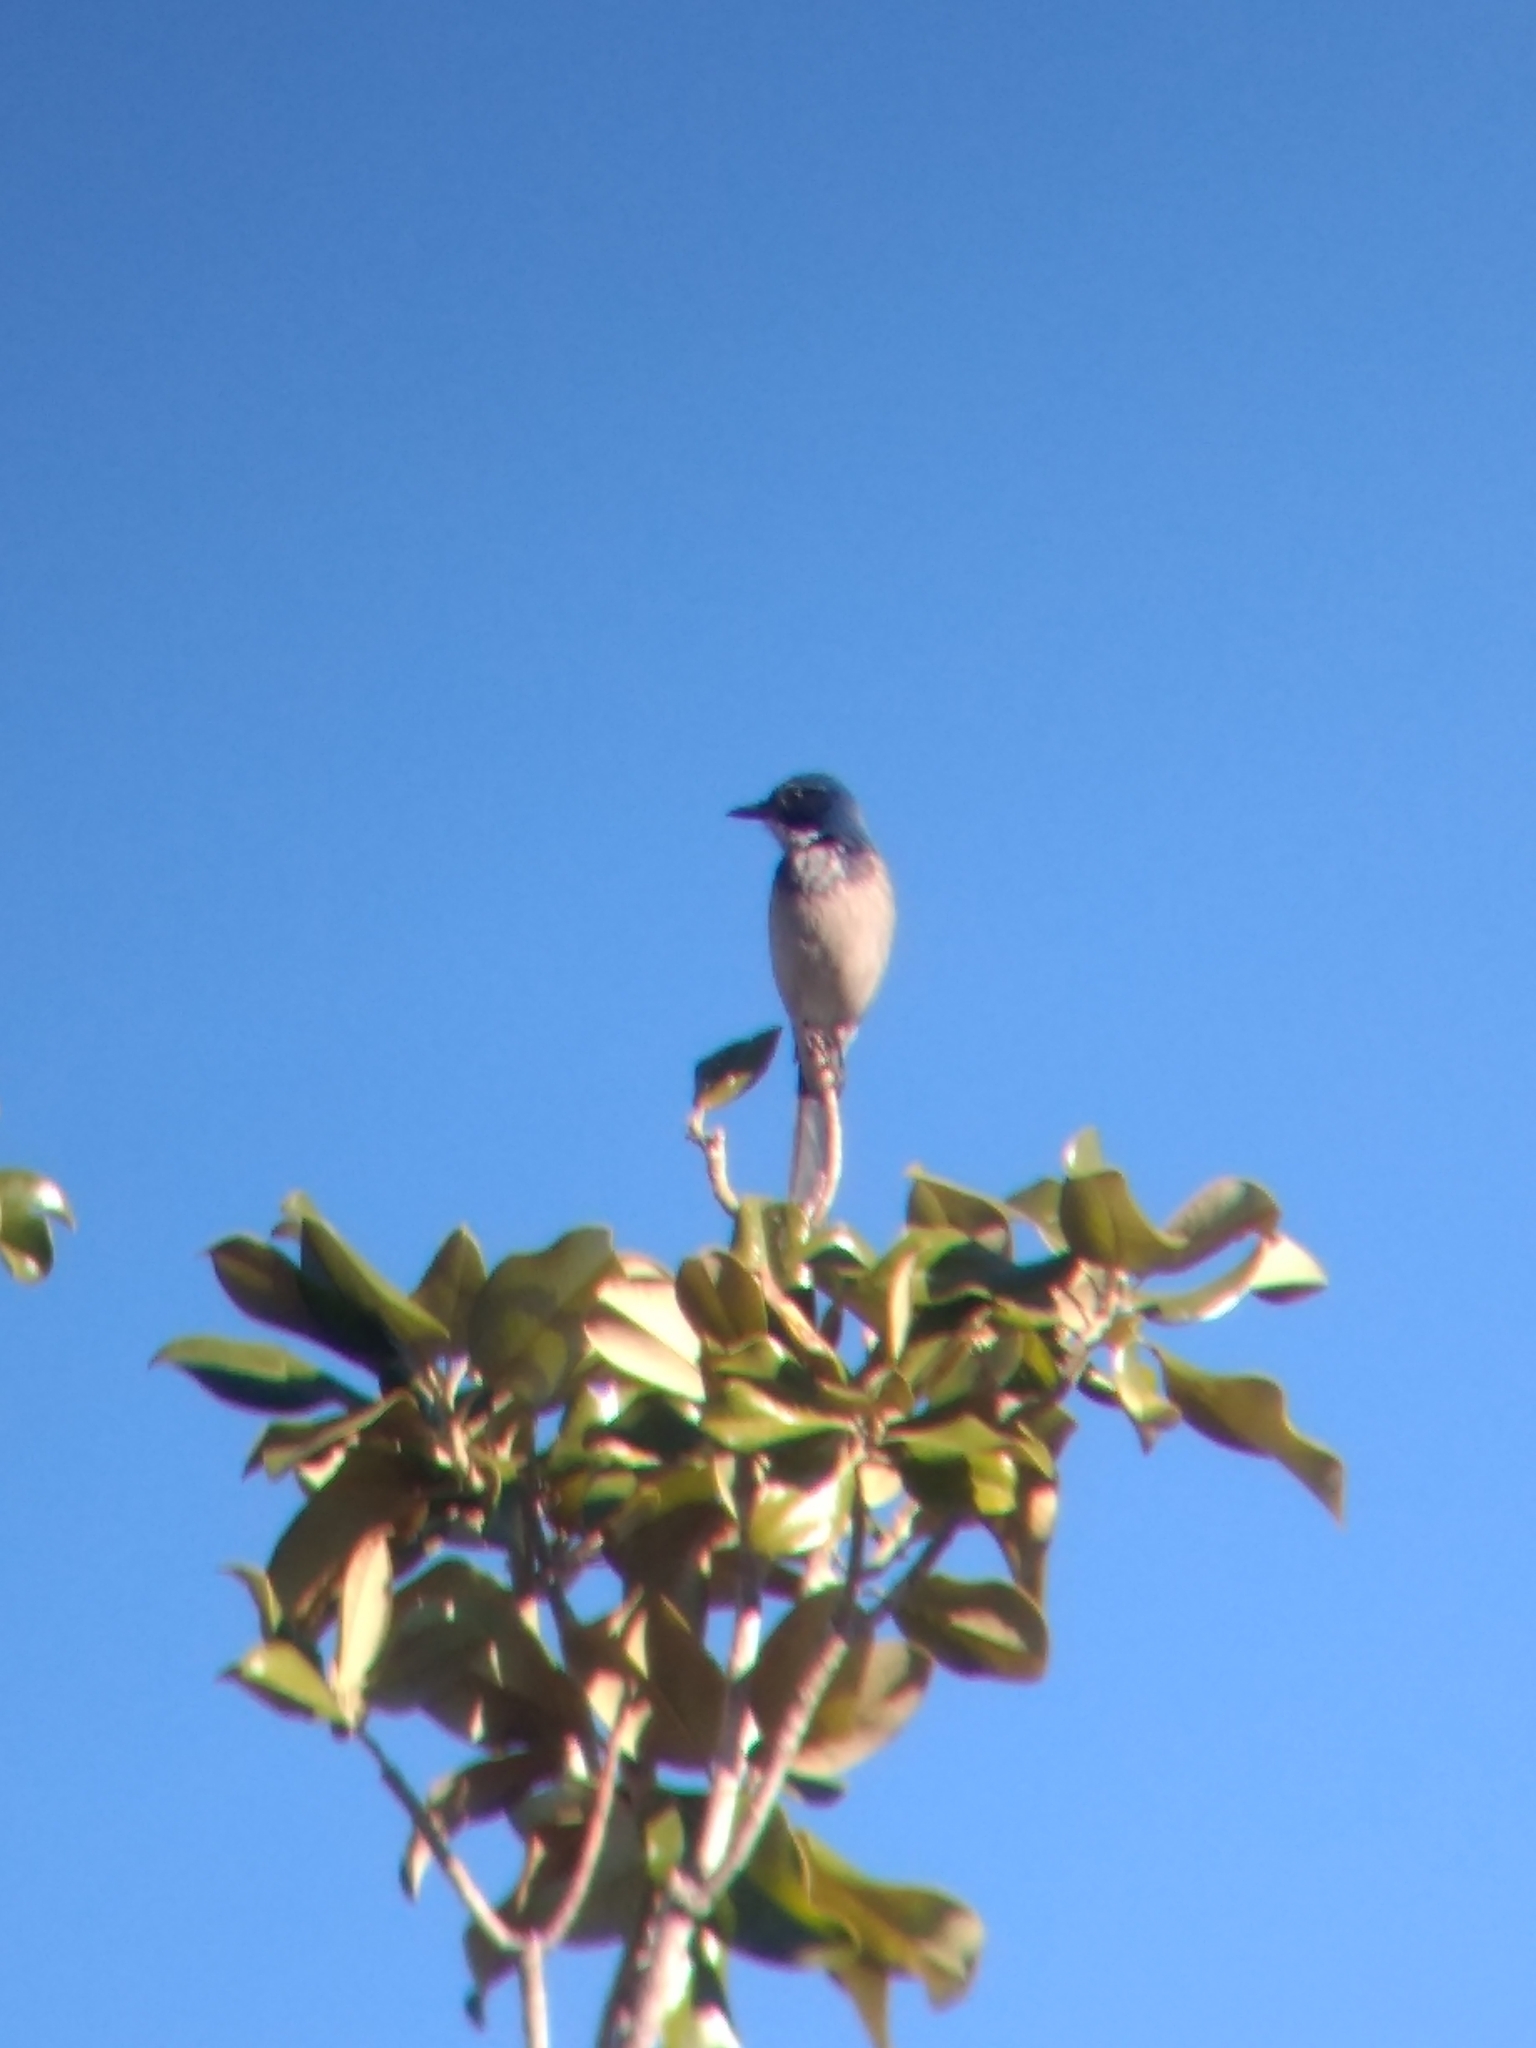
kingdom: Animalia
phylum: Chordata
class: Aves
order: Passeriformes
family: Corvidae
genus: Aphelocoma
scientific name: Aphelocoma californica
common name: California scrub-jay
